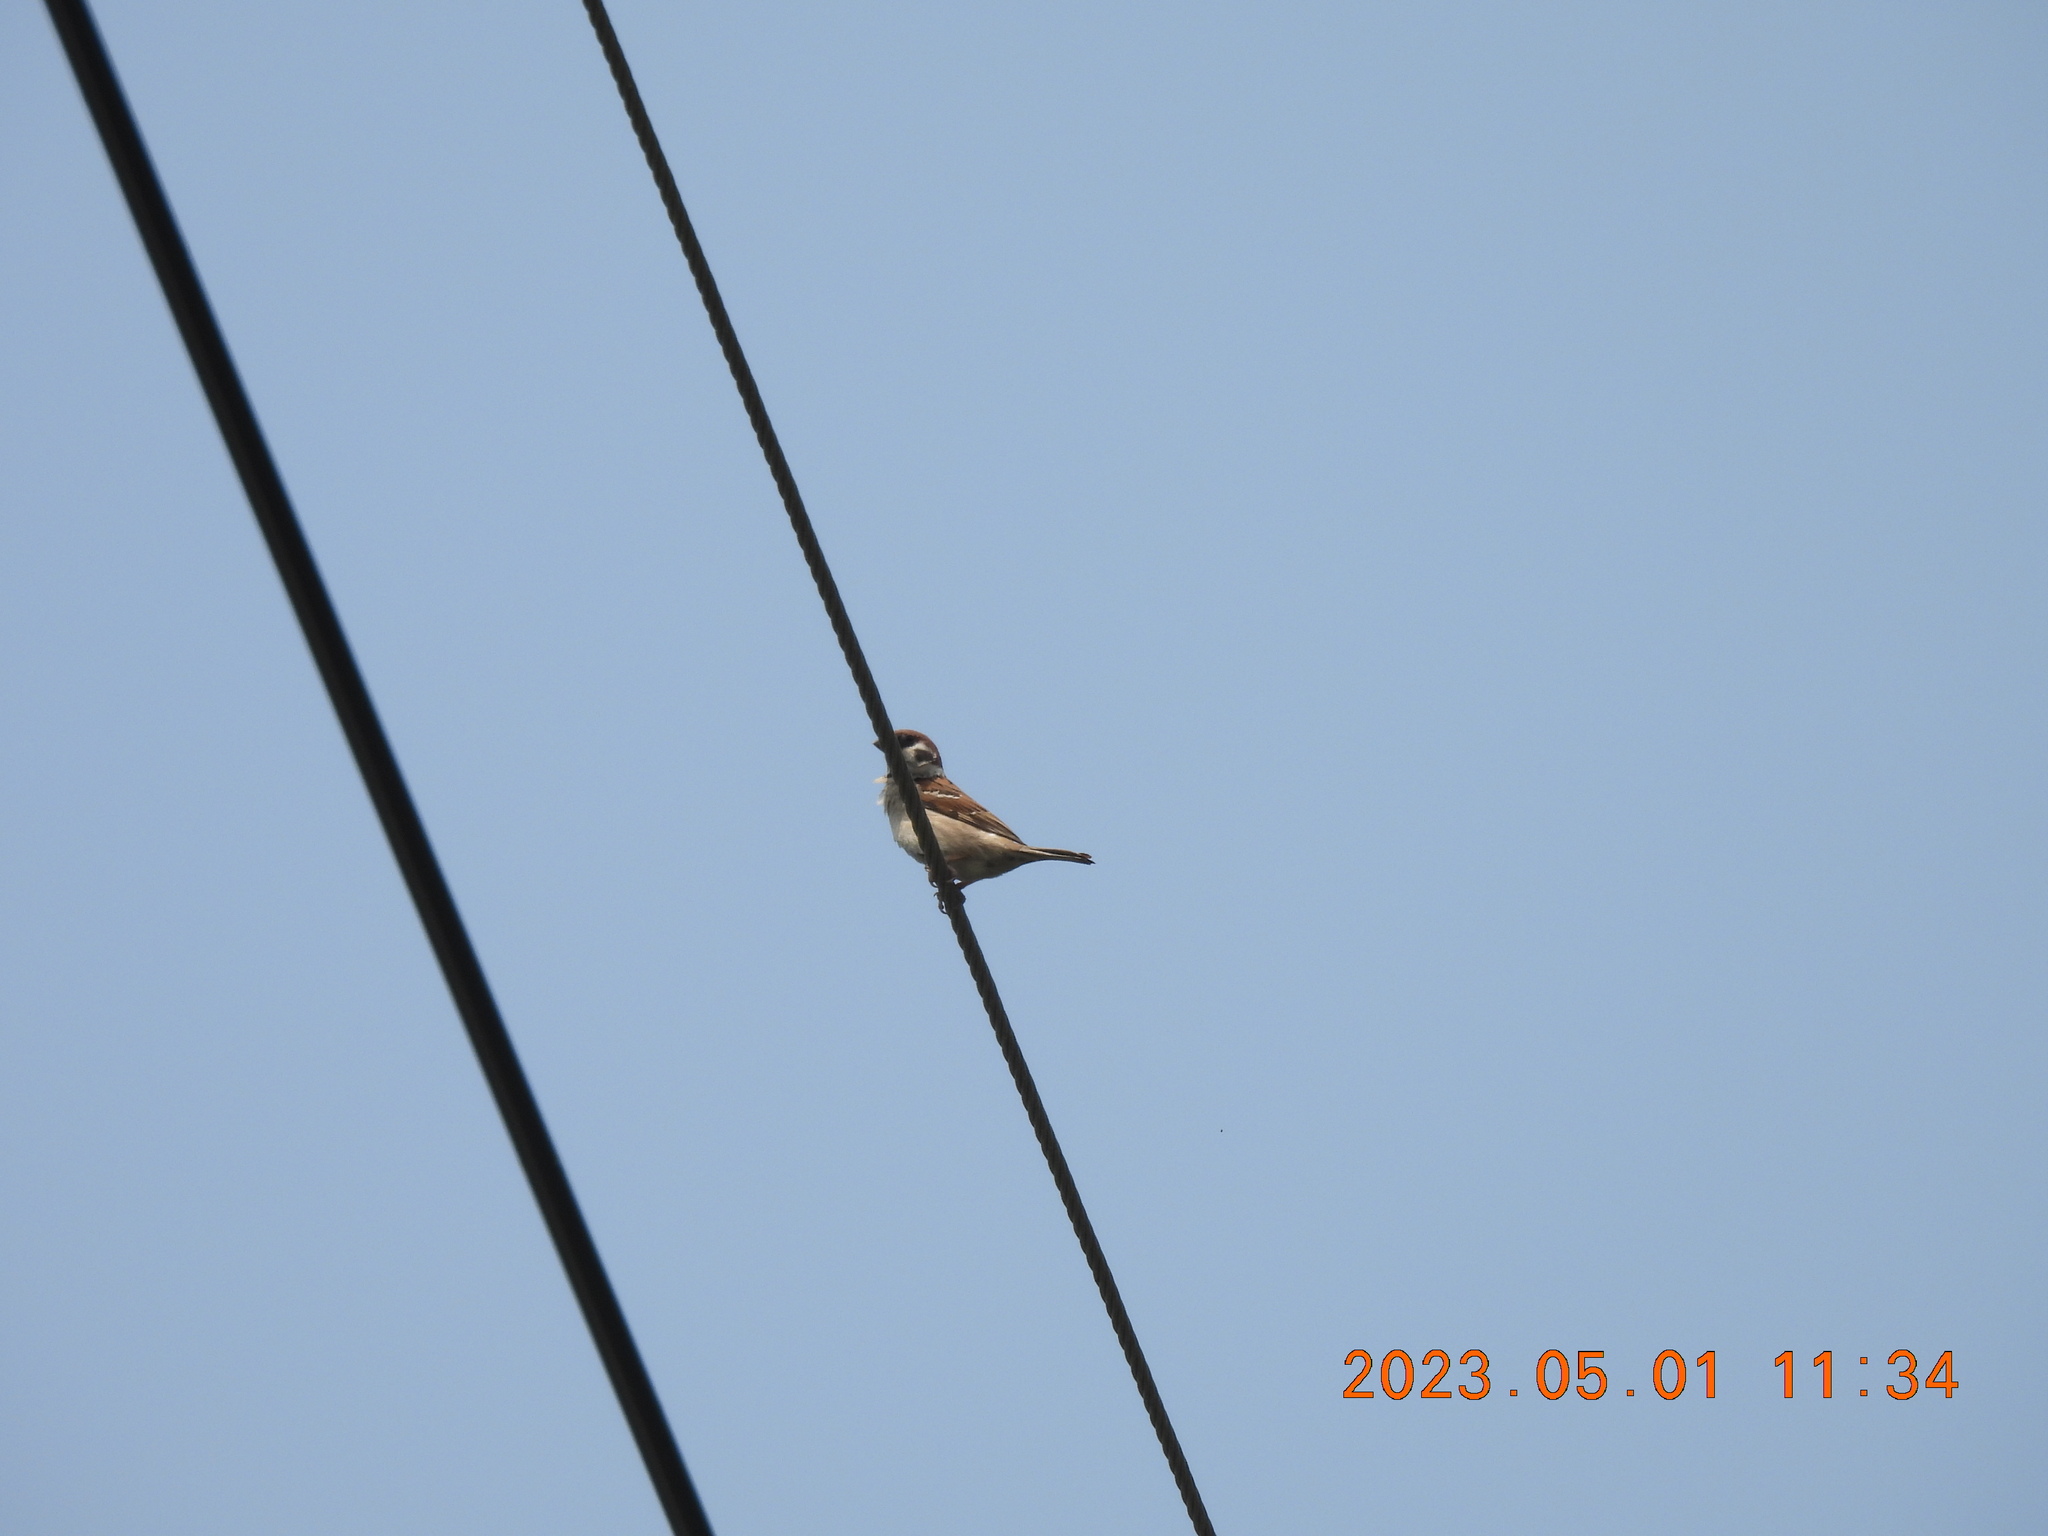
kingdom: Animalia
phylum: Chordata
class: Aves
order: Passeriformes
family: Passeridae
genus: Passer
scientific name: Passer montanus
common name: Eurasian tree sparrow
